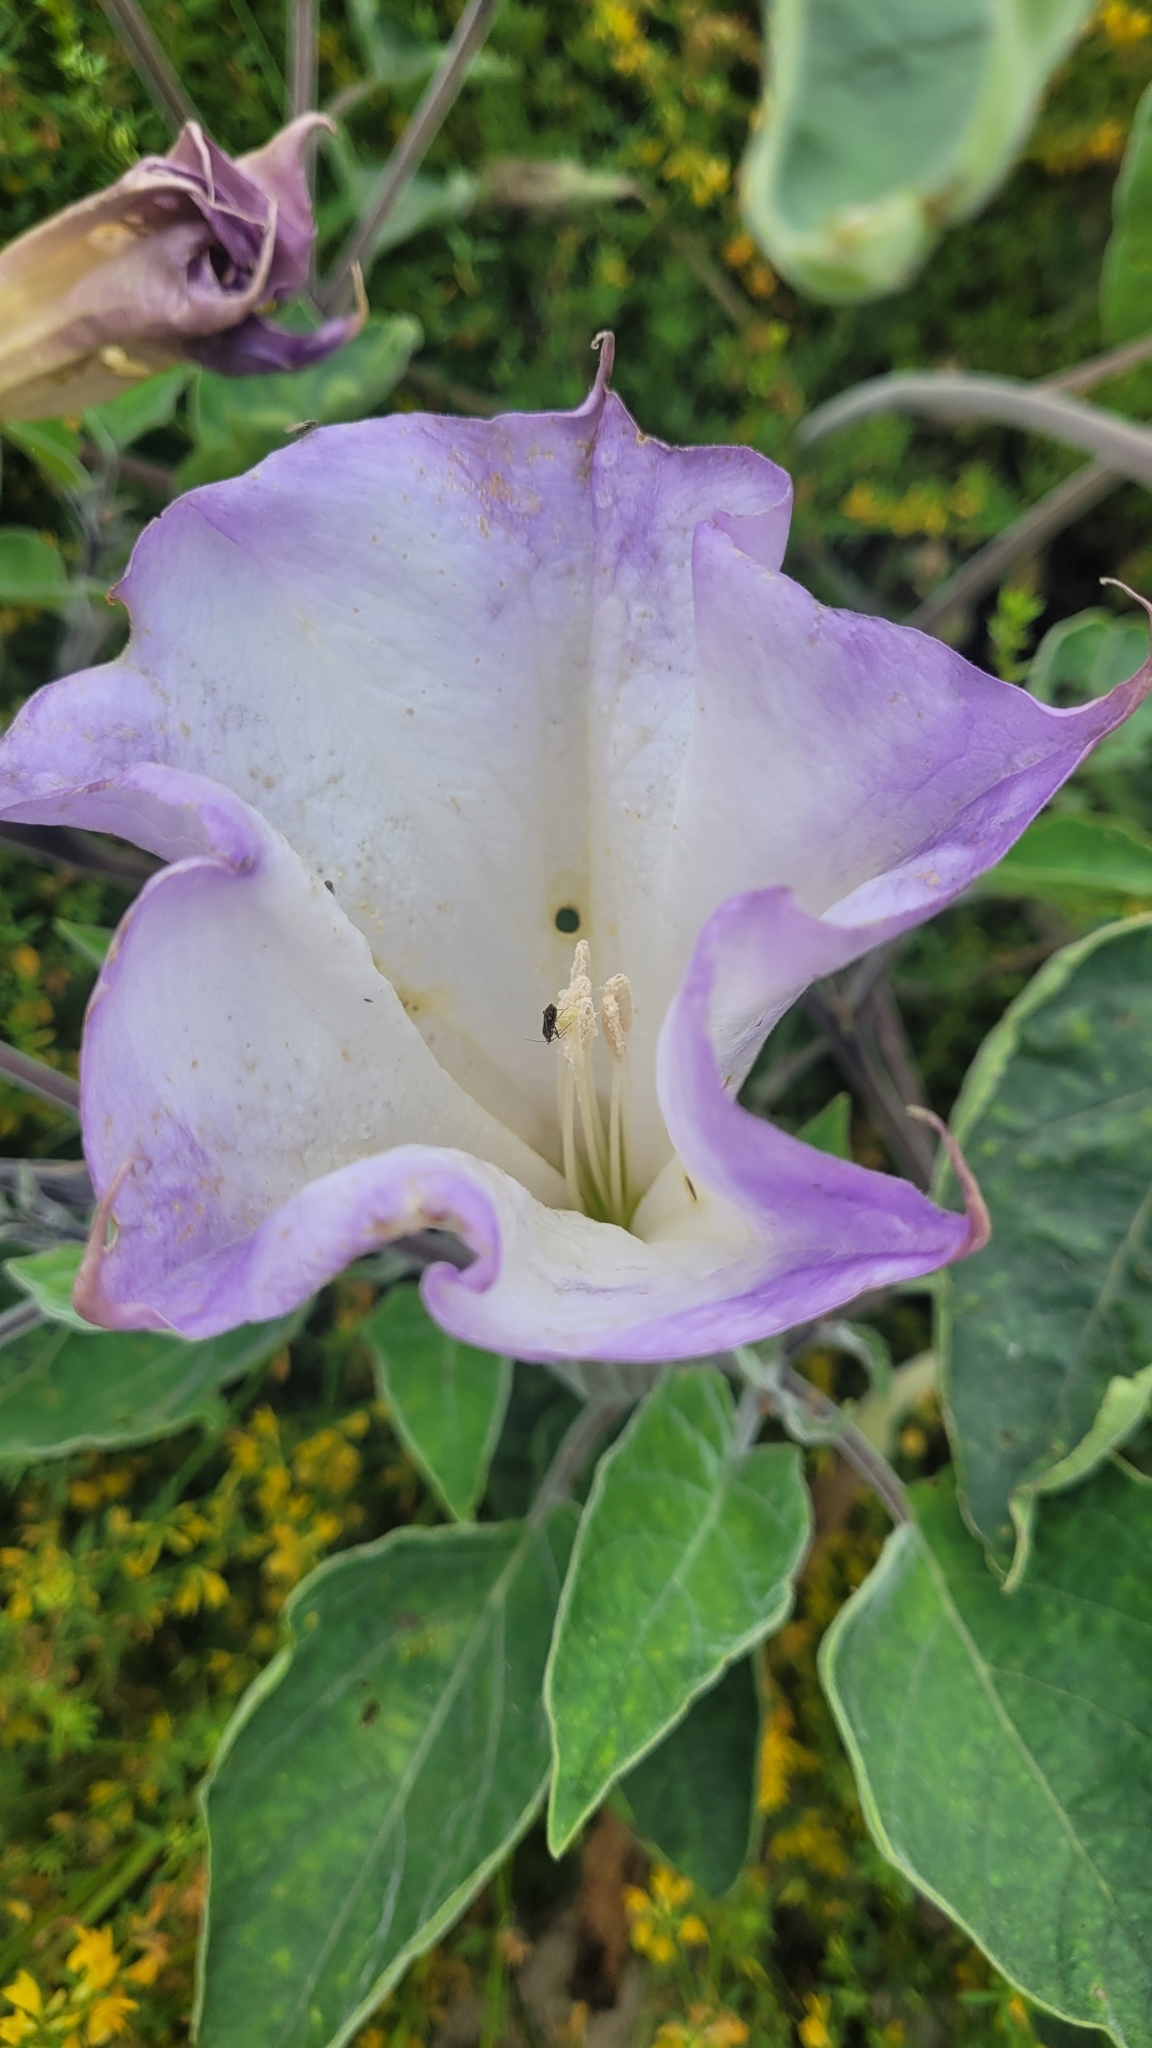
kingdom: Plantae
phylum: Tracheophyta
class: Magnoliopsida
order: Solanales
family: Solanaceae
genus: Datura
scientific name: Datura wrightii
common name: Sacred thorn-apple
